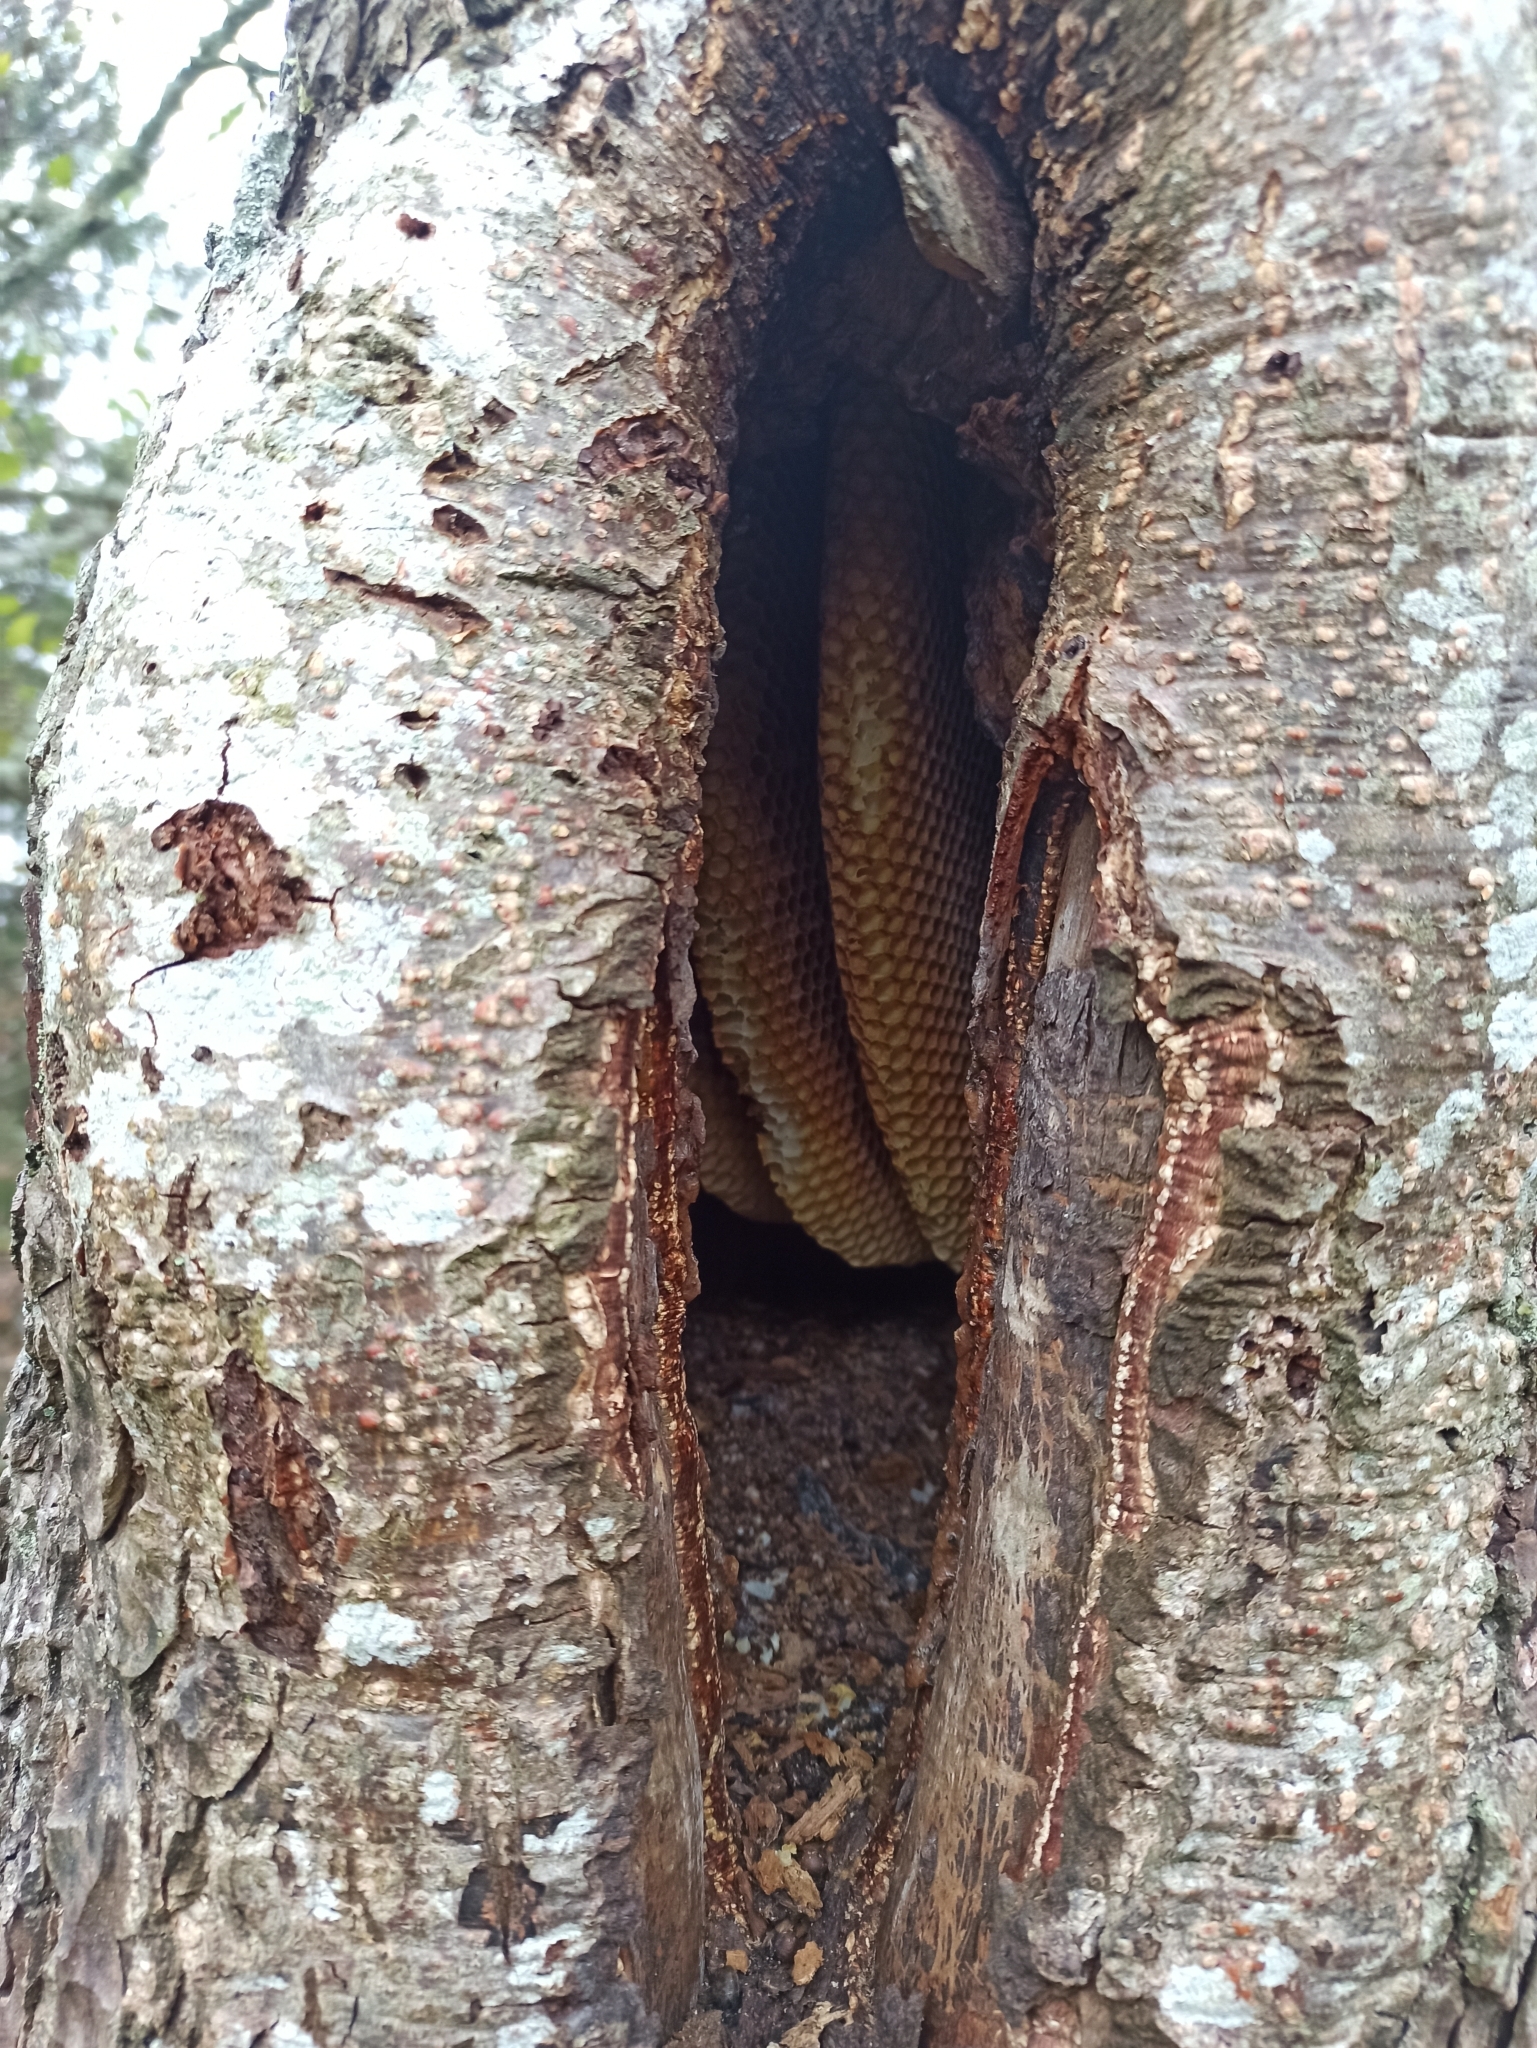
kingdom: Animalia
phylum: Arthropoda
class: Insecta
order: Hymenoptera
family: Apidae
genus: Apis
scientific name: Apis mellifera
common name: Honey bee
